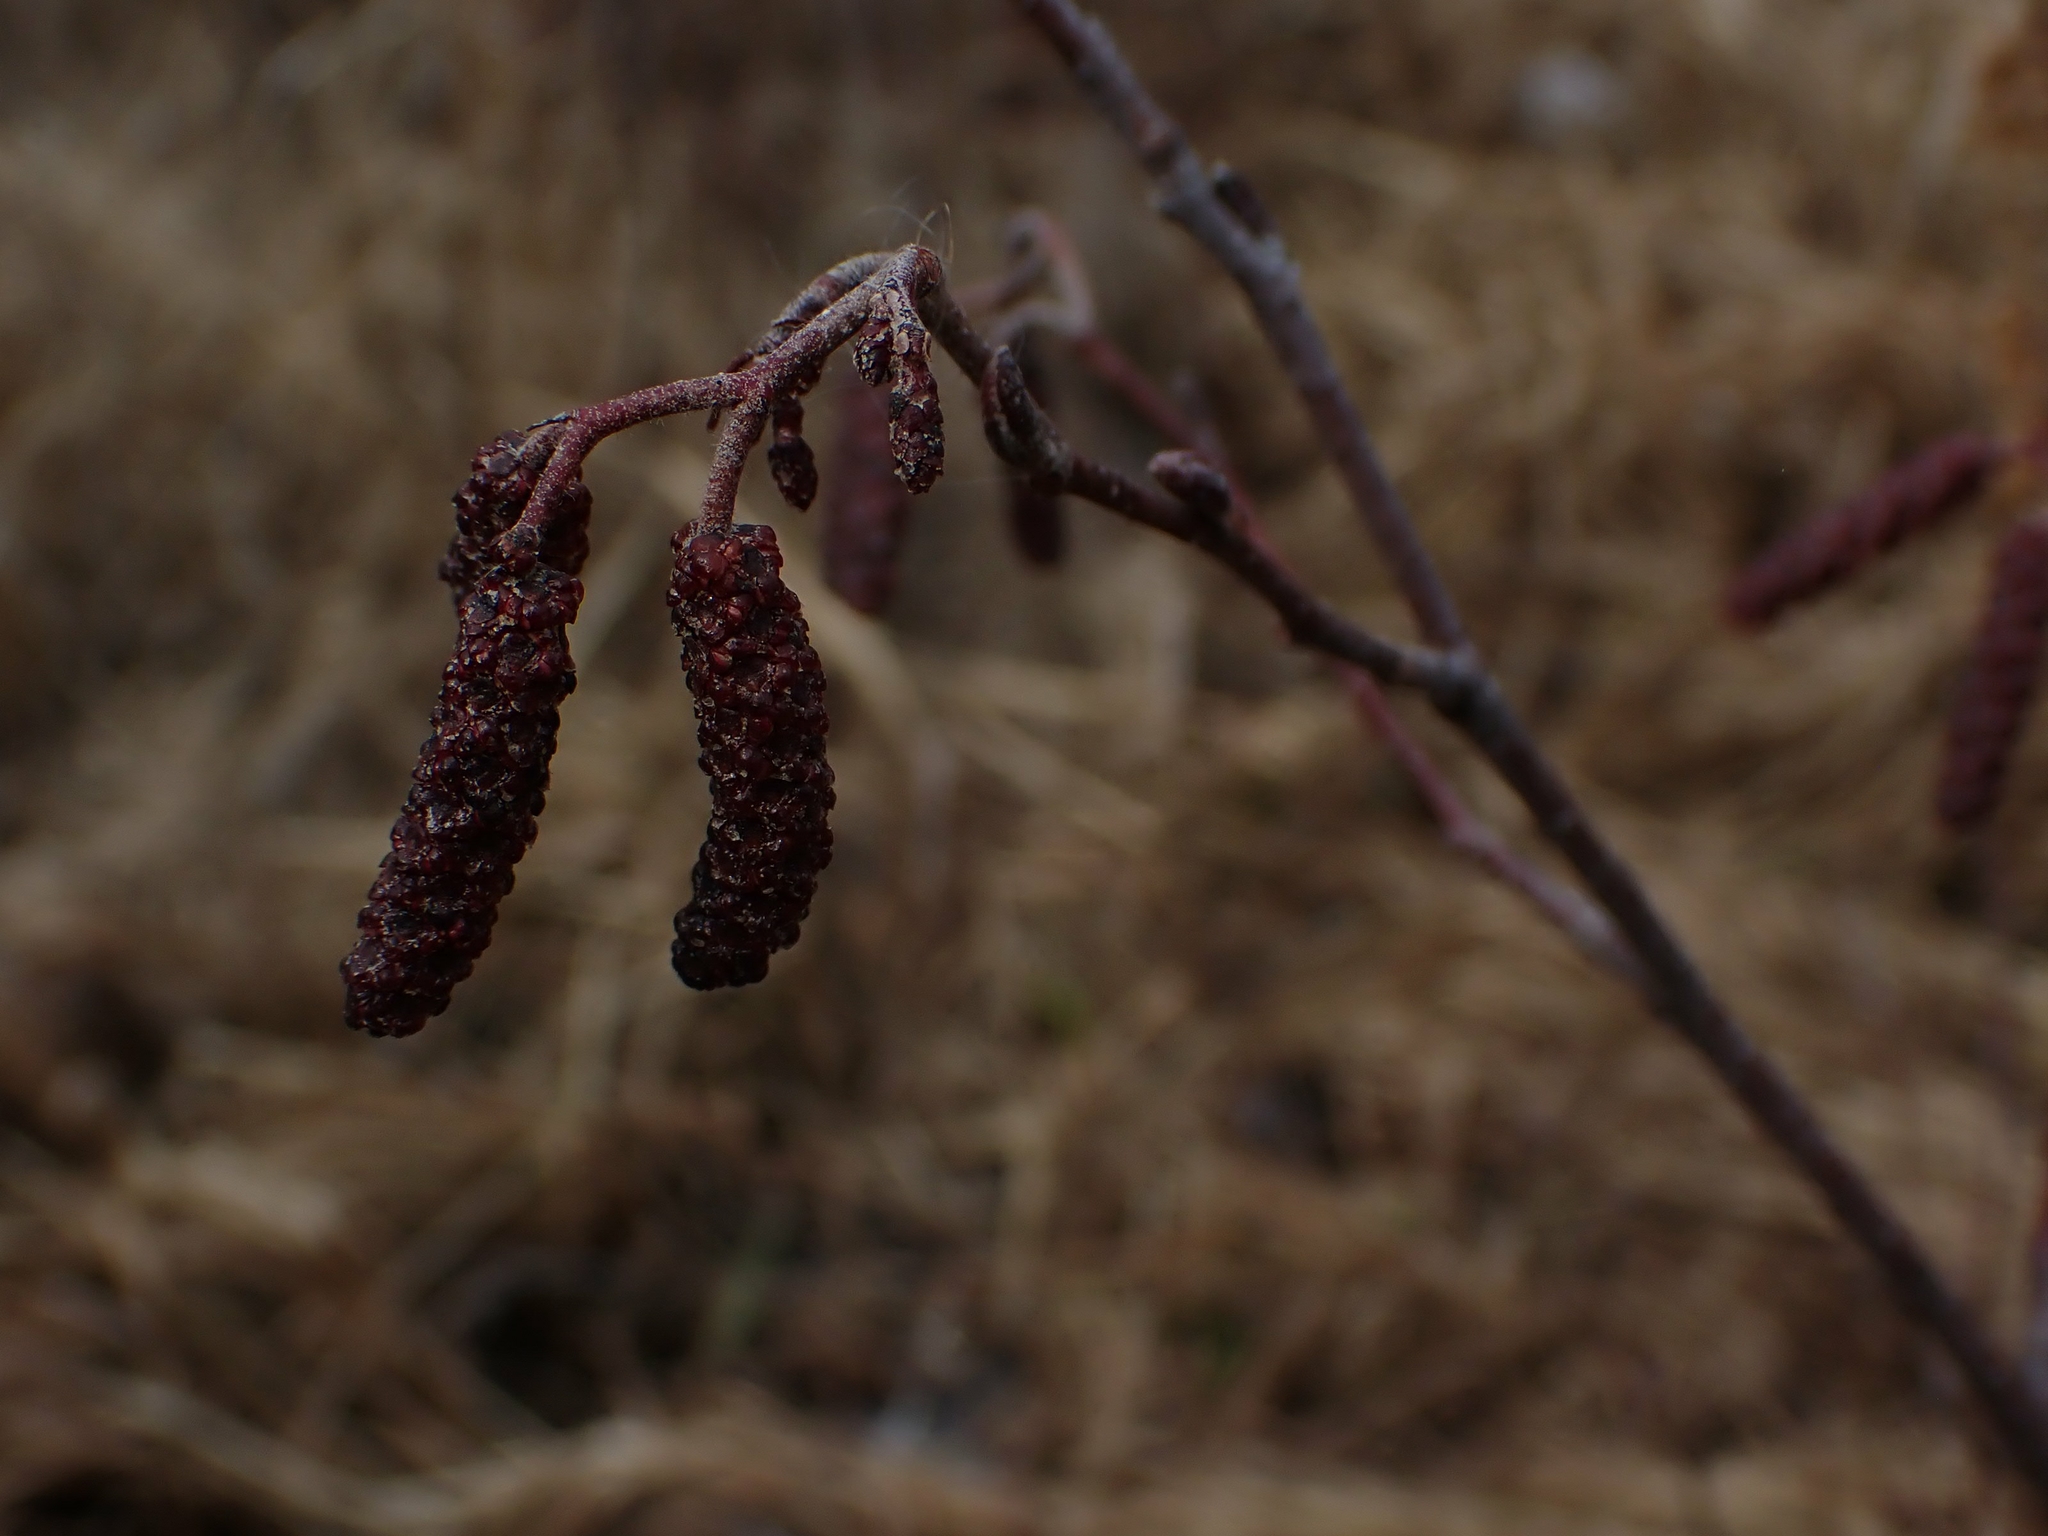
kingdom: Plantae
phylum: Tracheophyta
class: Magnoliopsida
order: Fagales
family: Betulaceae
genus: Alnus
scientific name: Alnus incana
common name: Grey alder
